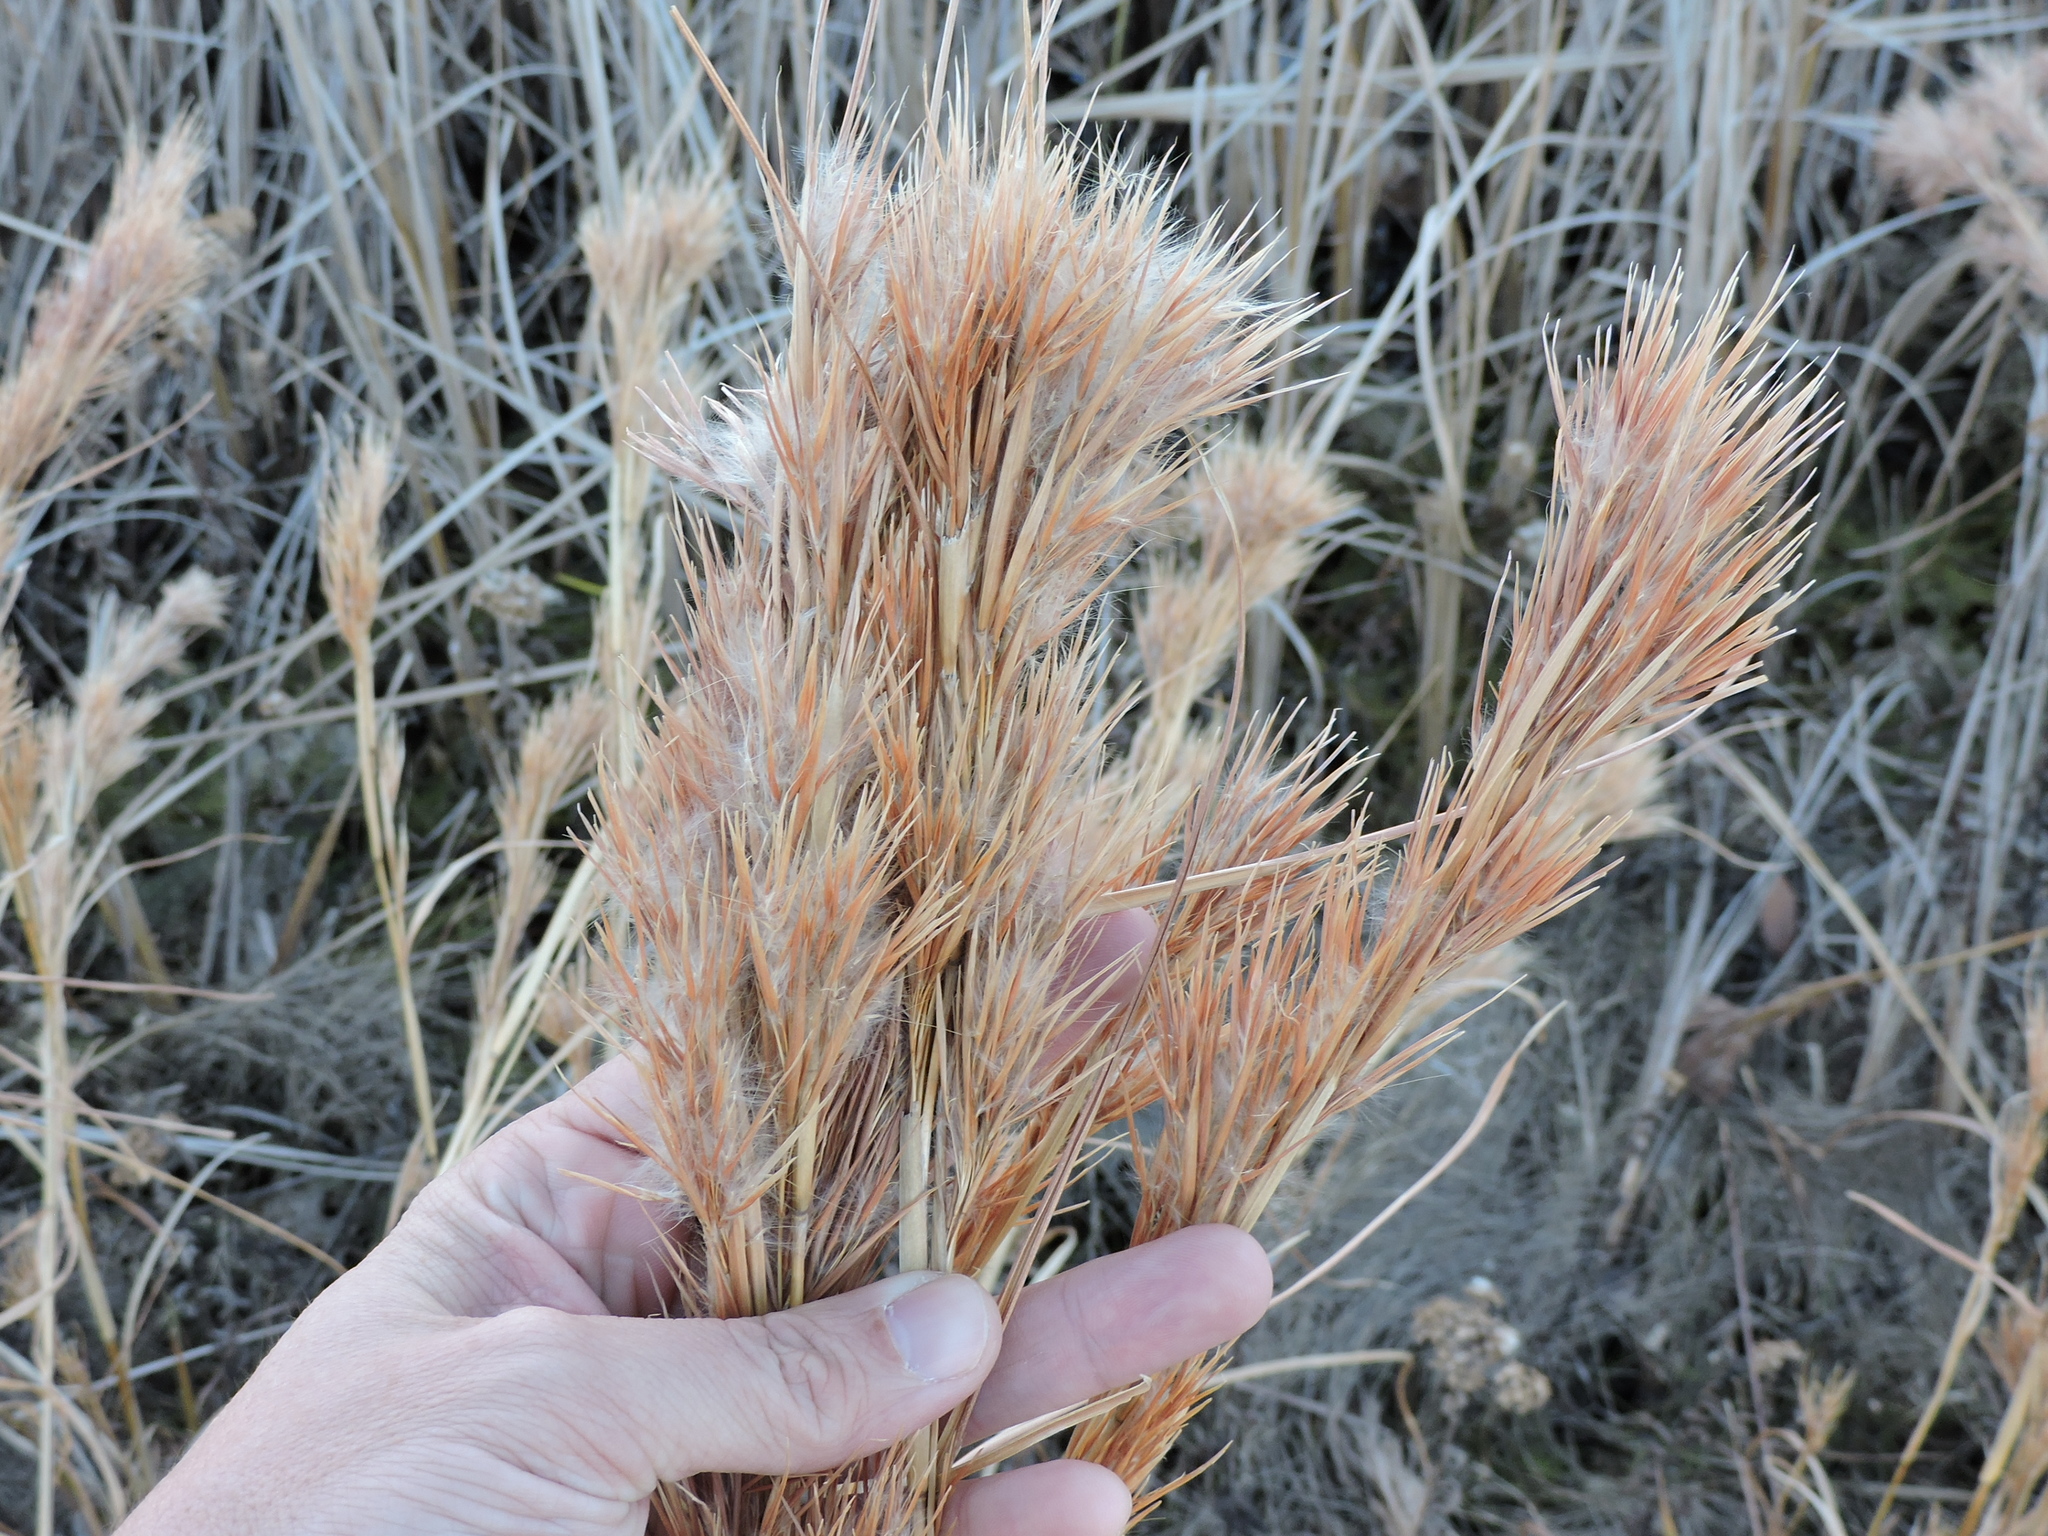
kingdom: Plantae
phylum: Tracheophyta
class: Liliopsida
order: Poales
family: Poaceae
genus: Andropogon
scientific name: Andropogon tenuispatheus
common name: Bushy bluestem
